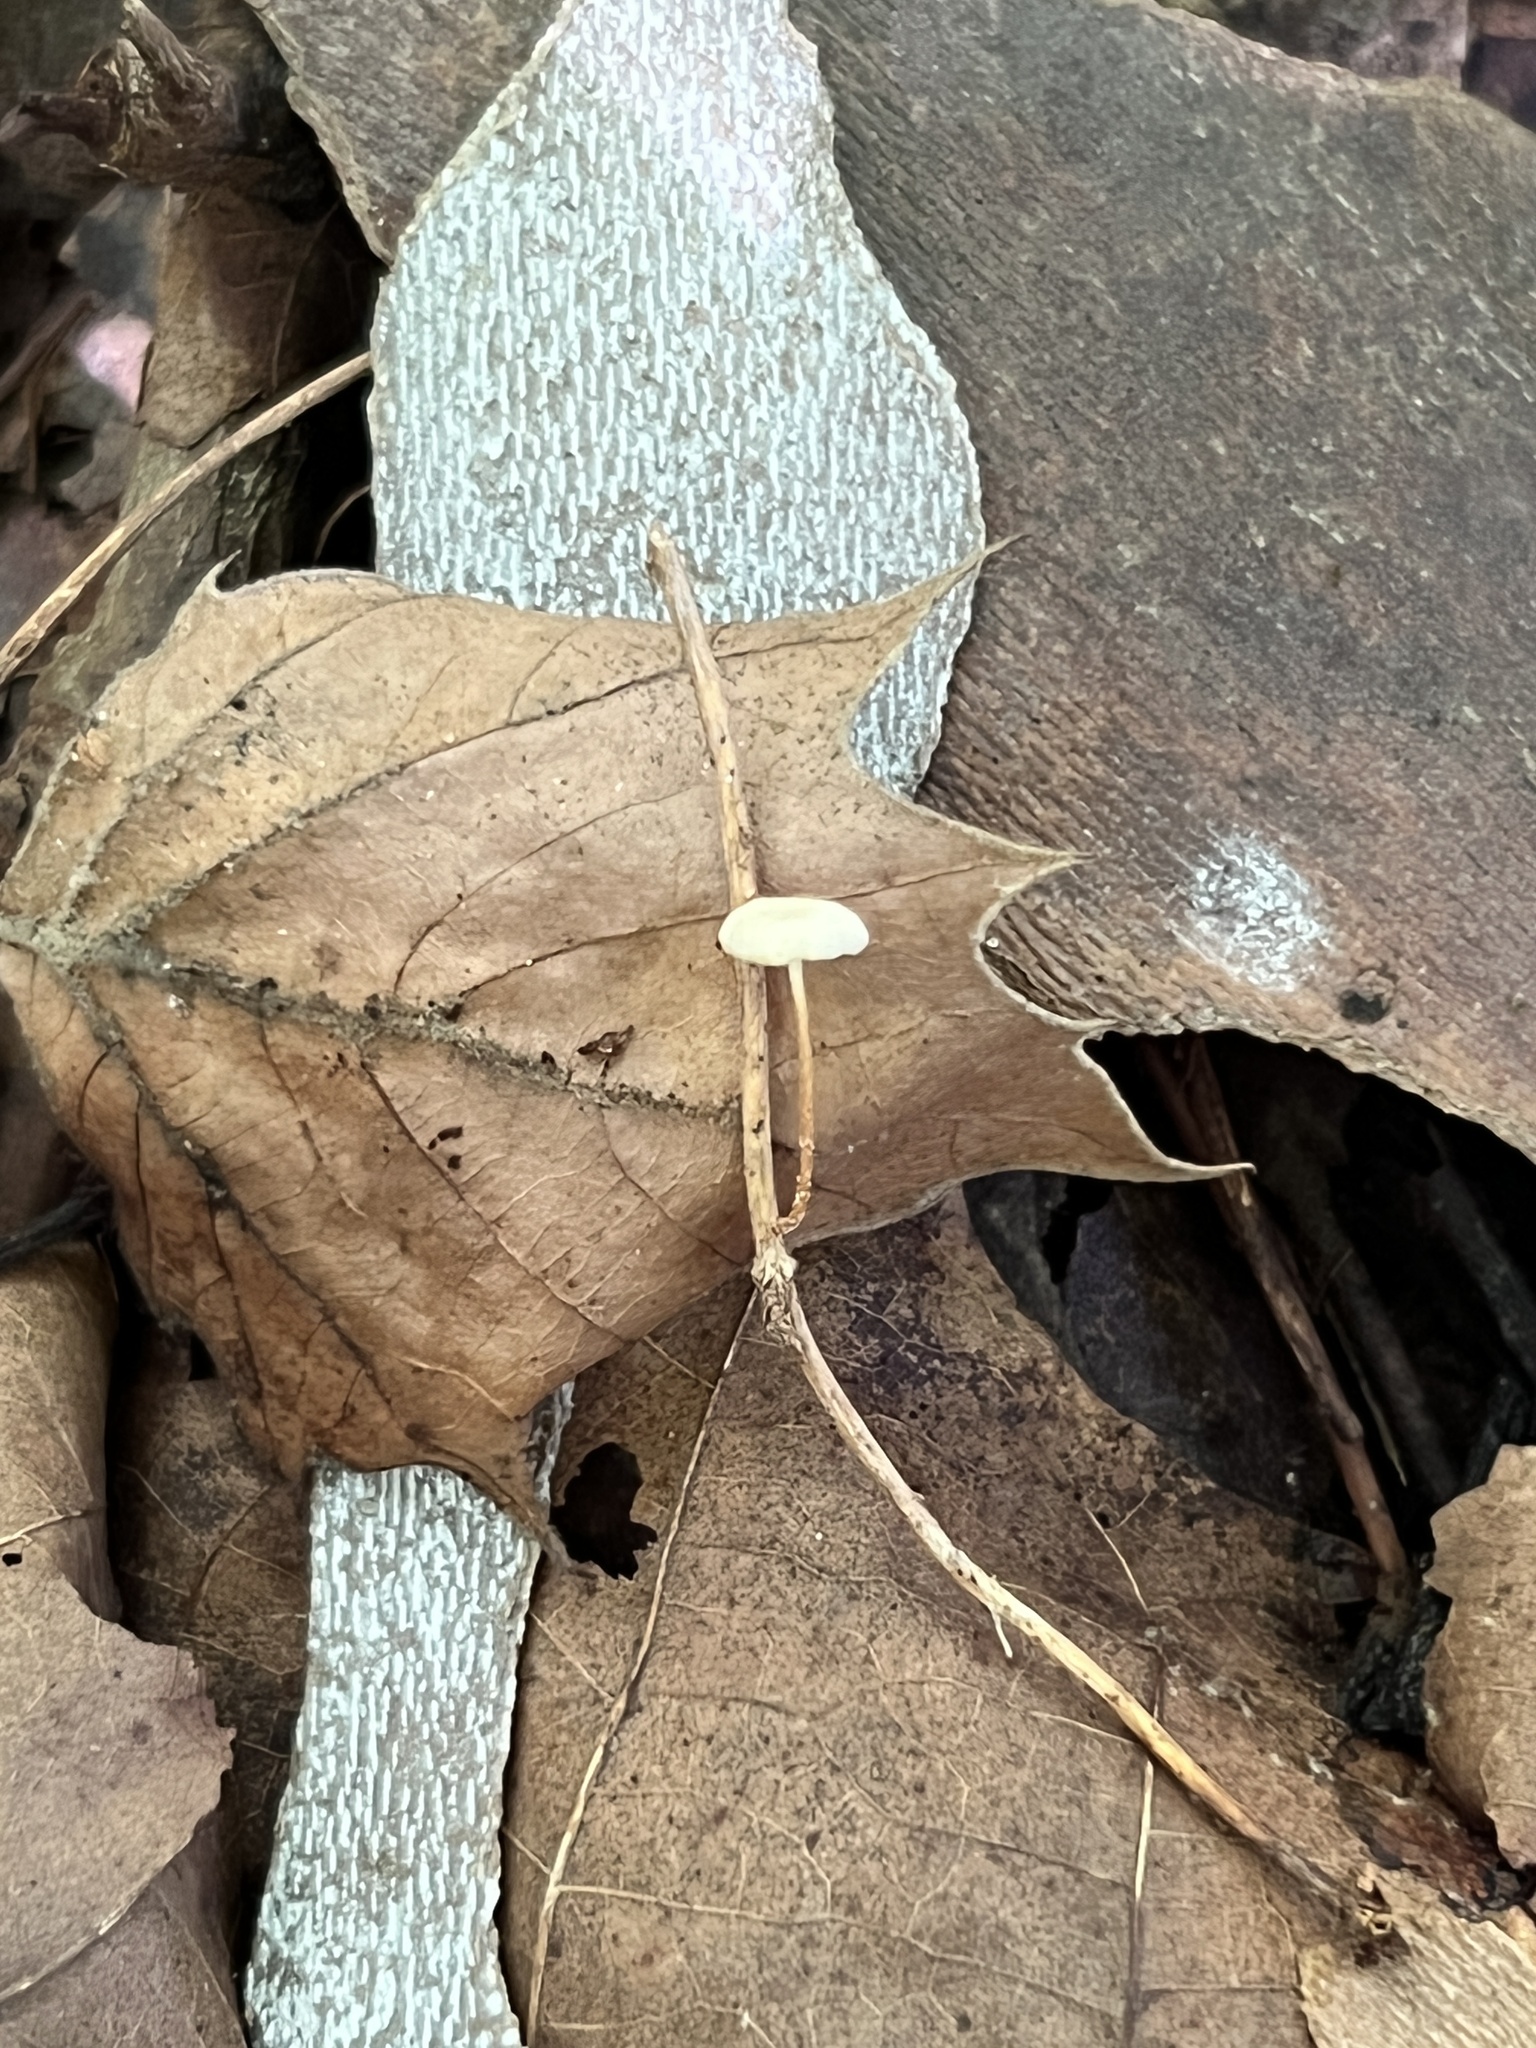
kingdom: Fungi
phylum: Basidiomycota
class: Agaricomycetes
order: Agaricales
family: Omphalotaceae
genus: Collybiopsis
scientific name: Collybiopsis vaillantii
